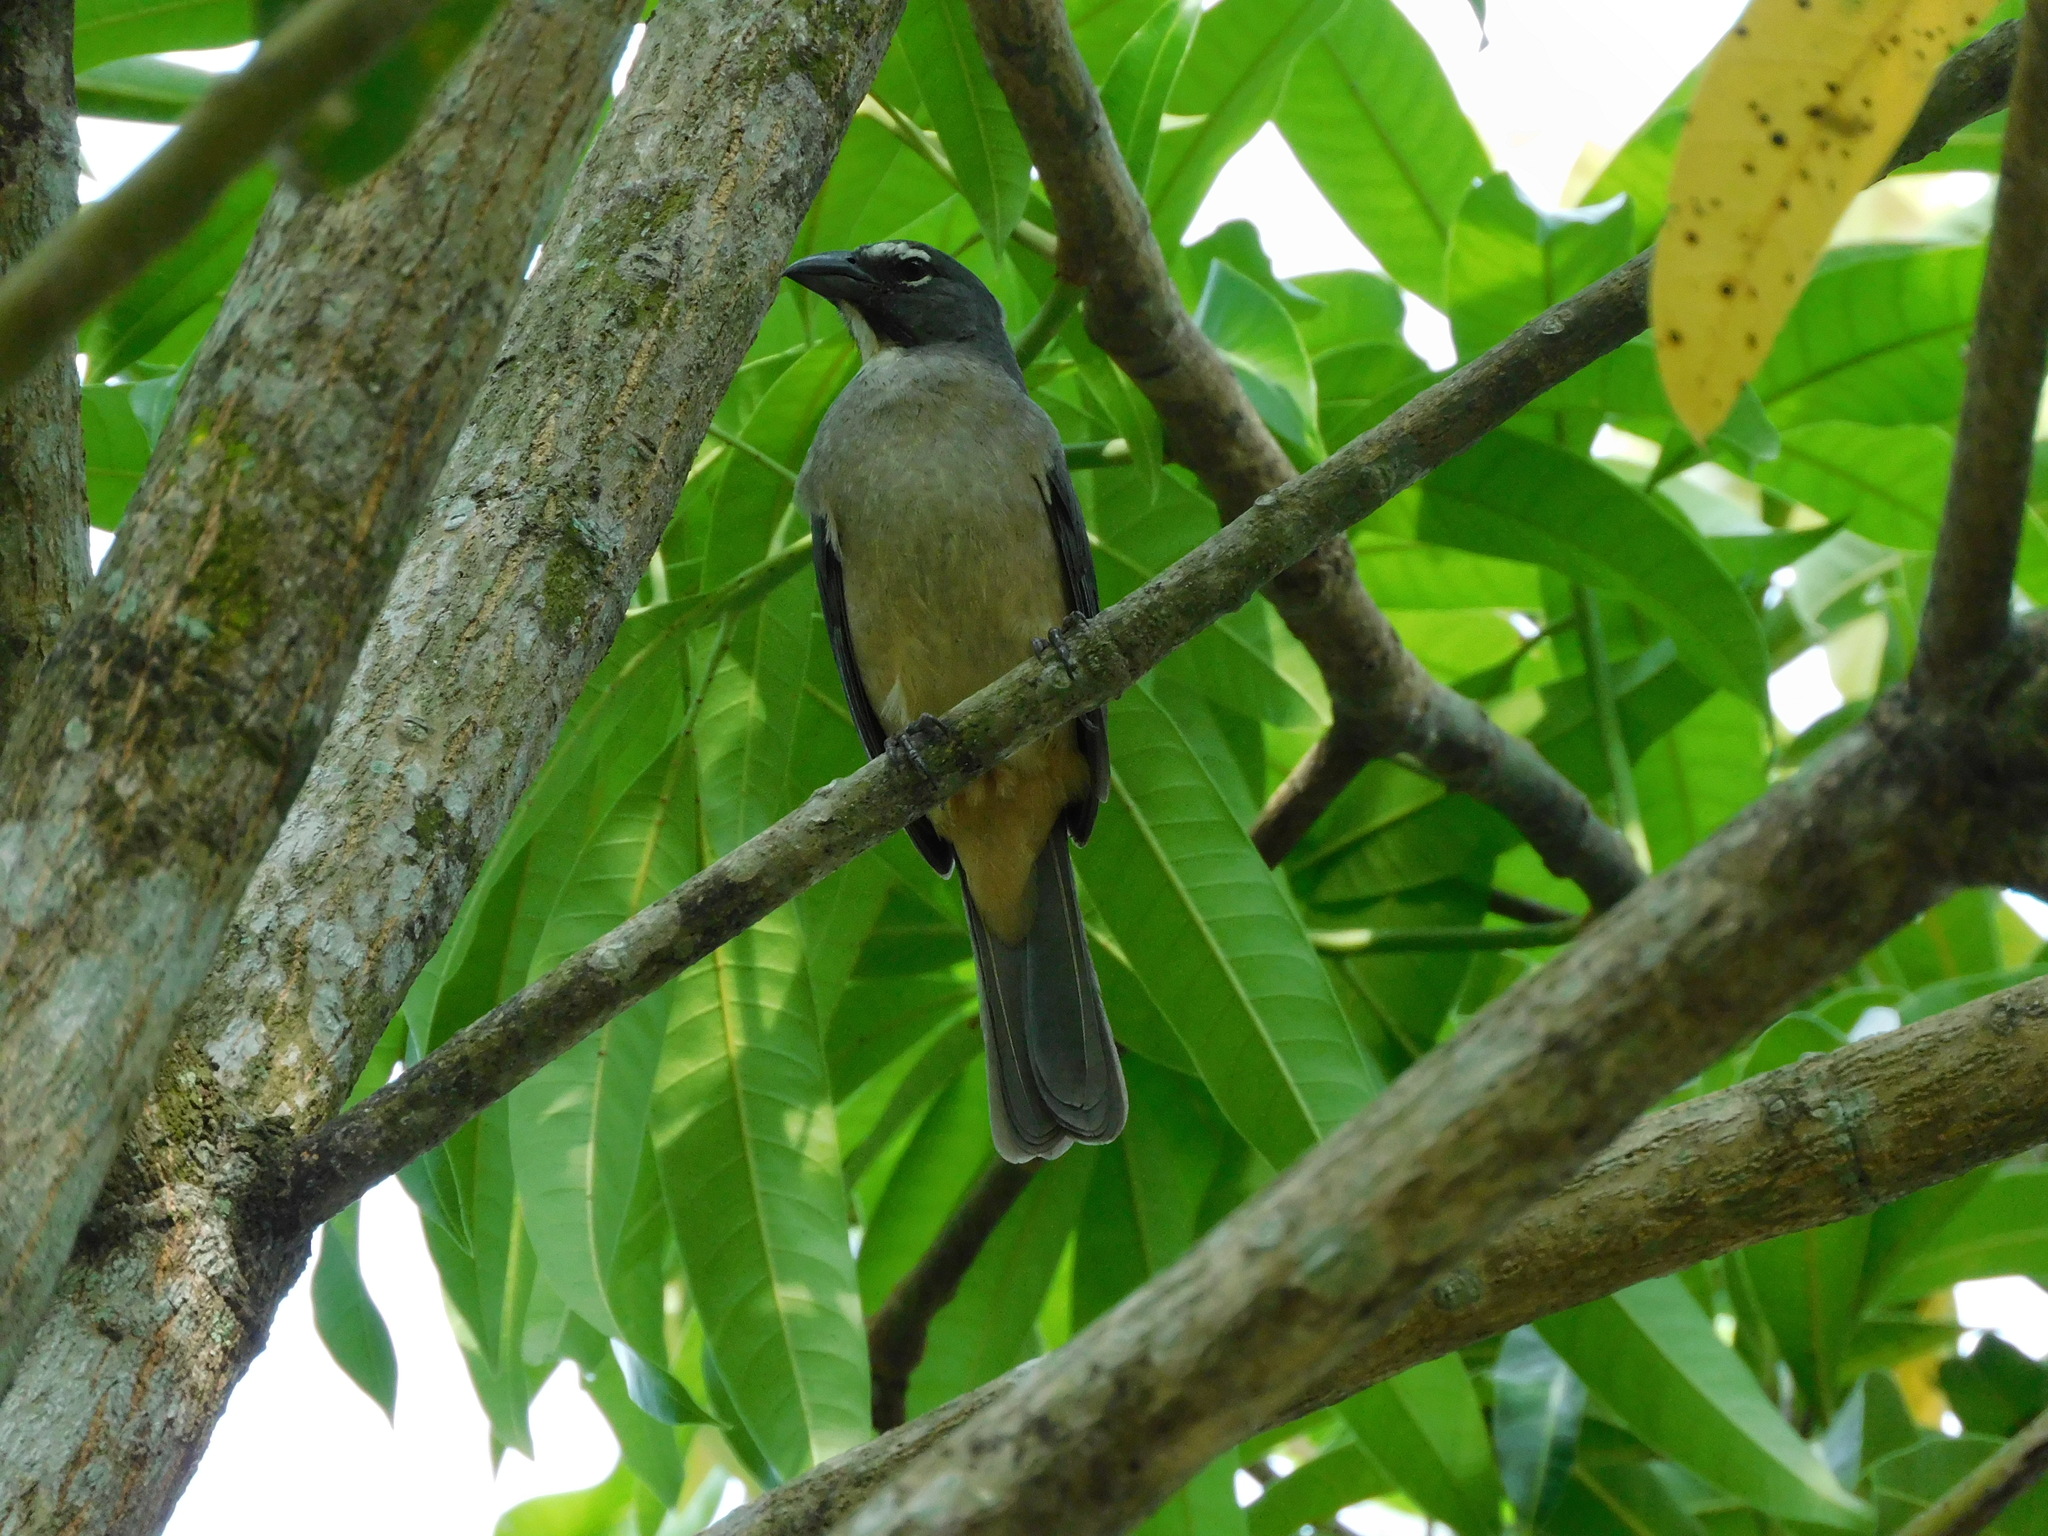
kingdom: Animalia
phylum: Chordata
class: Aves
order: Passeriformes
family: Thraupidae
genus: Saltator
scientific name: Saltator olivascens
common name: Caribbean grey saltator
